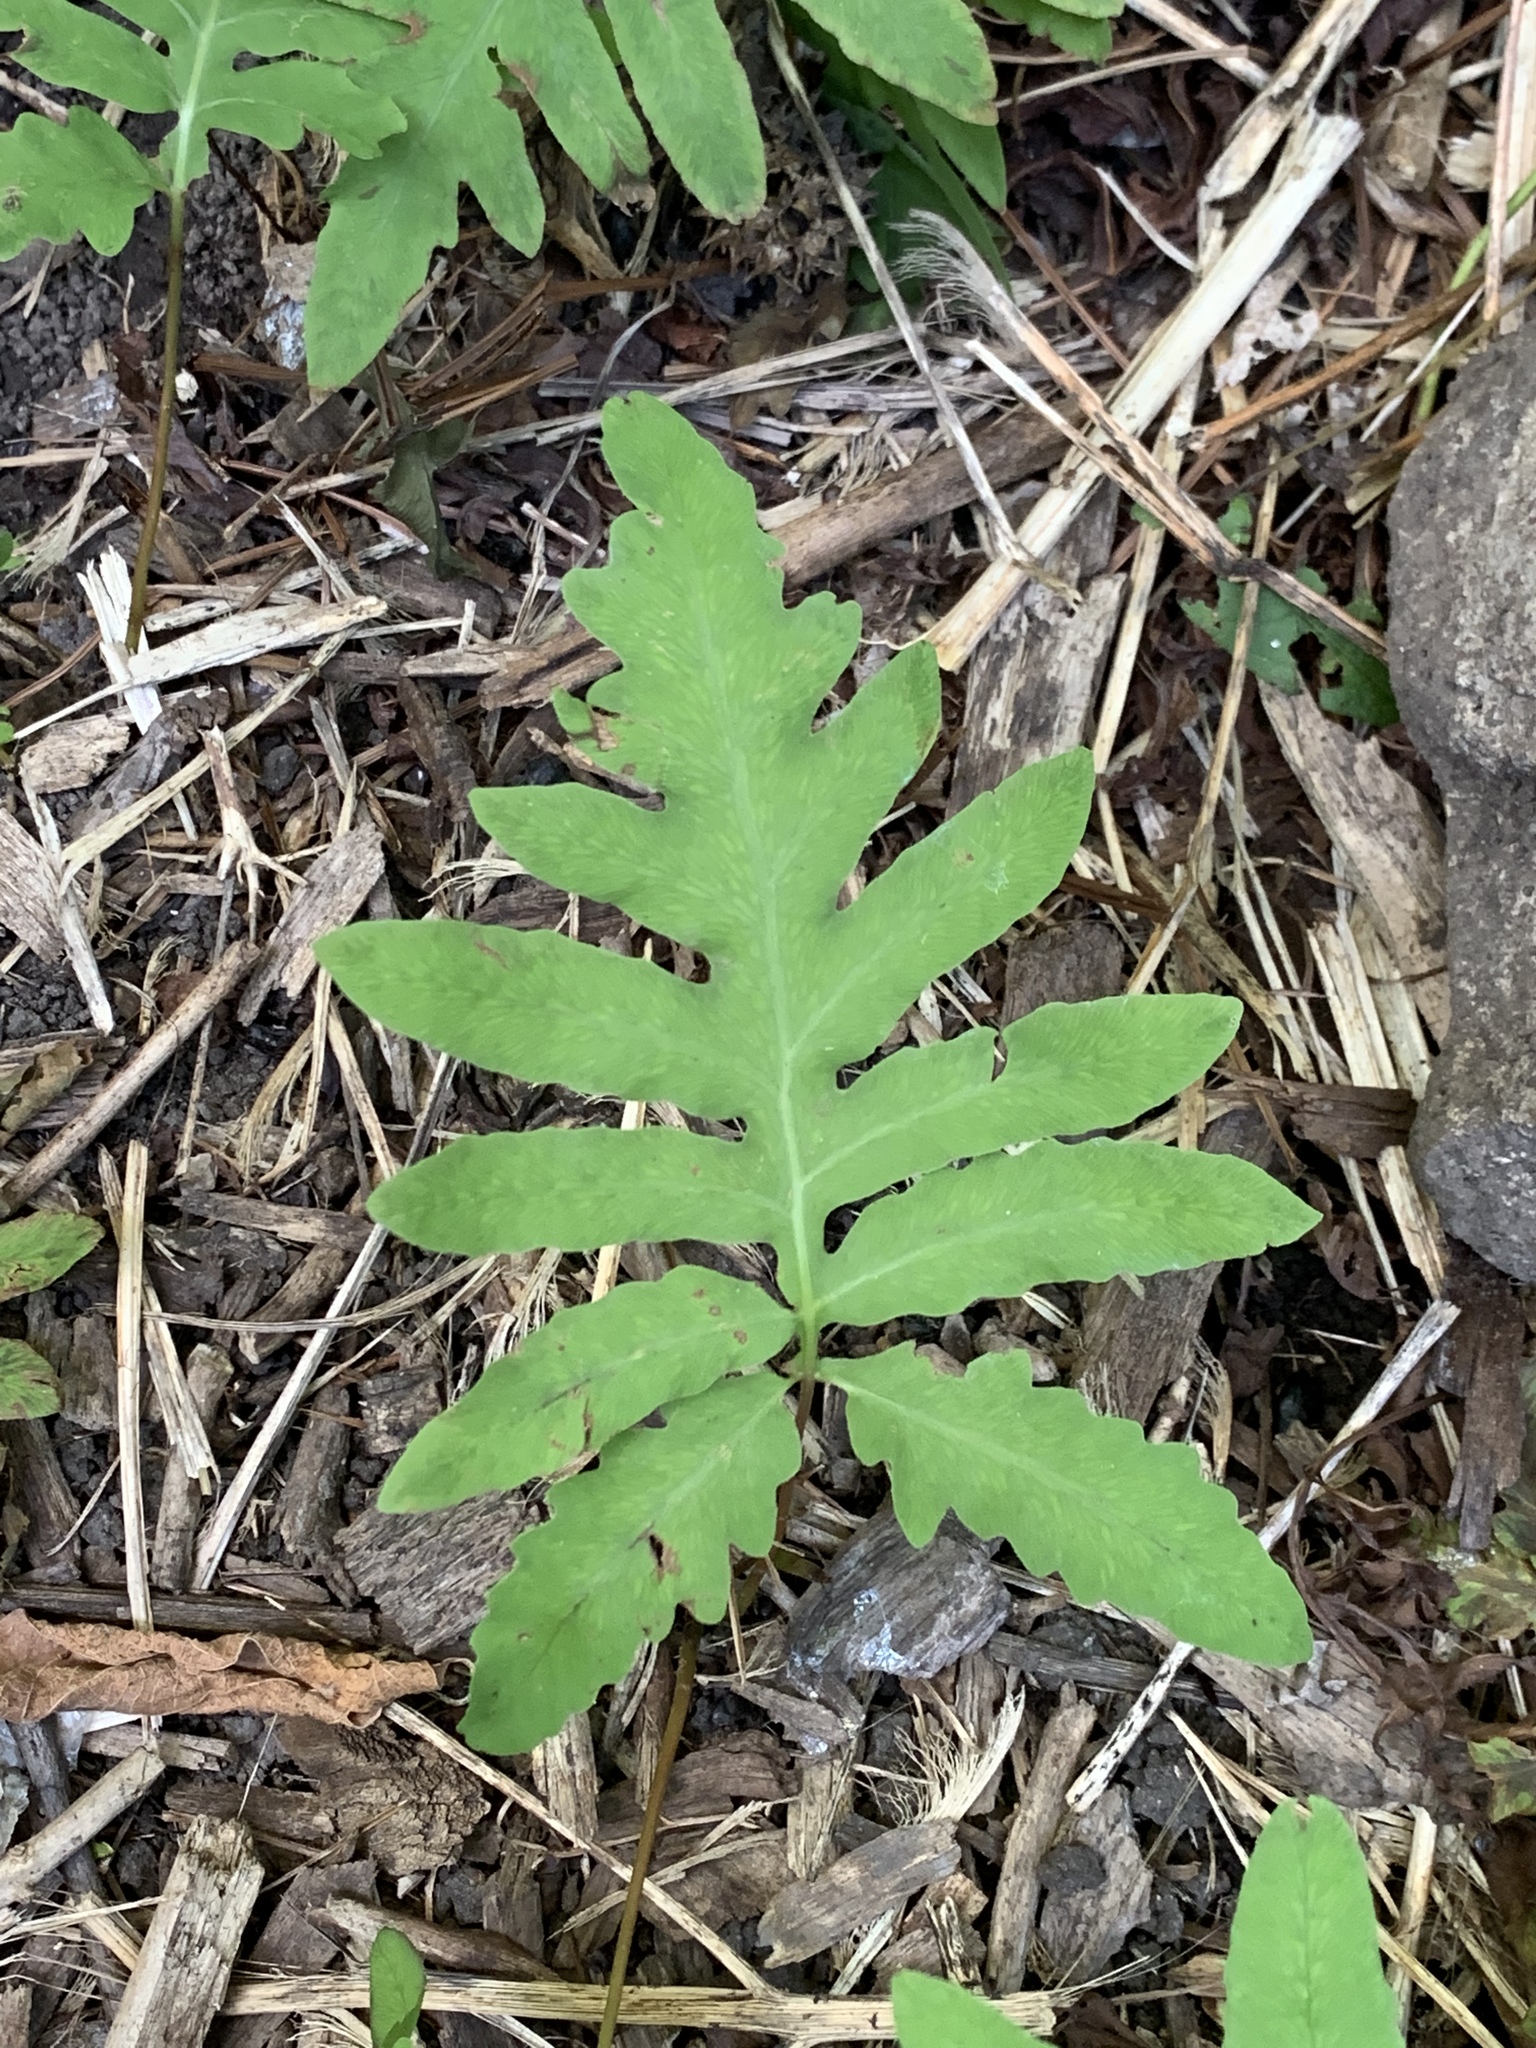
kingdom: Plantae
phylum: Tracheophyta
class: Polypodiopsida
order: Polypodiales
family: Onocleaceae
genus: Onoclea
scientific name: Onoclea sensibilis
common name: Sensitive fern
